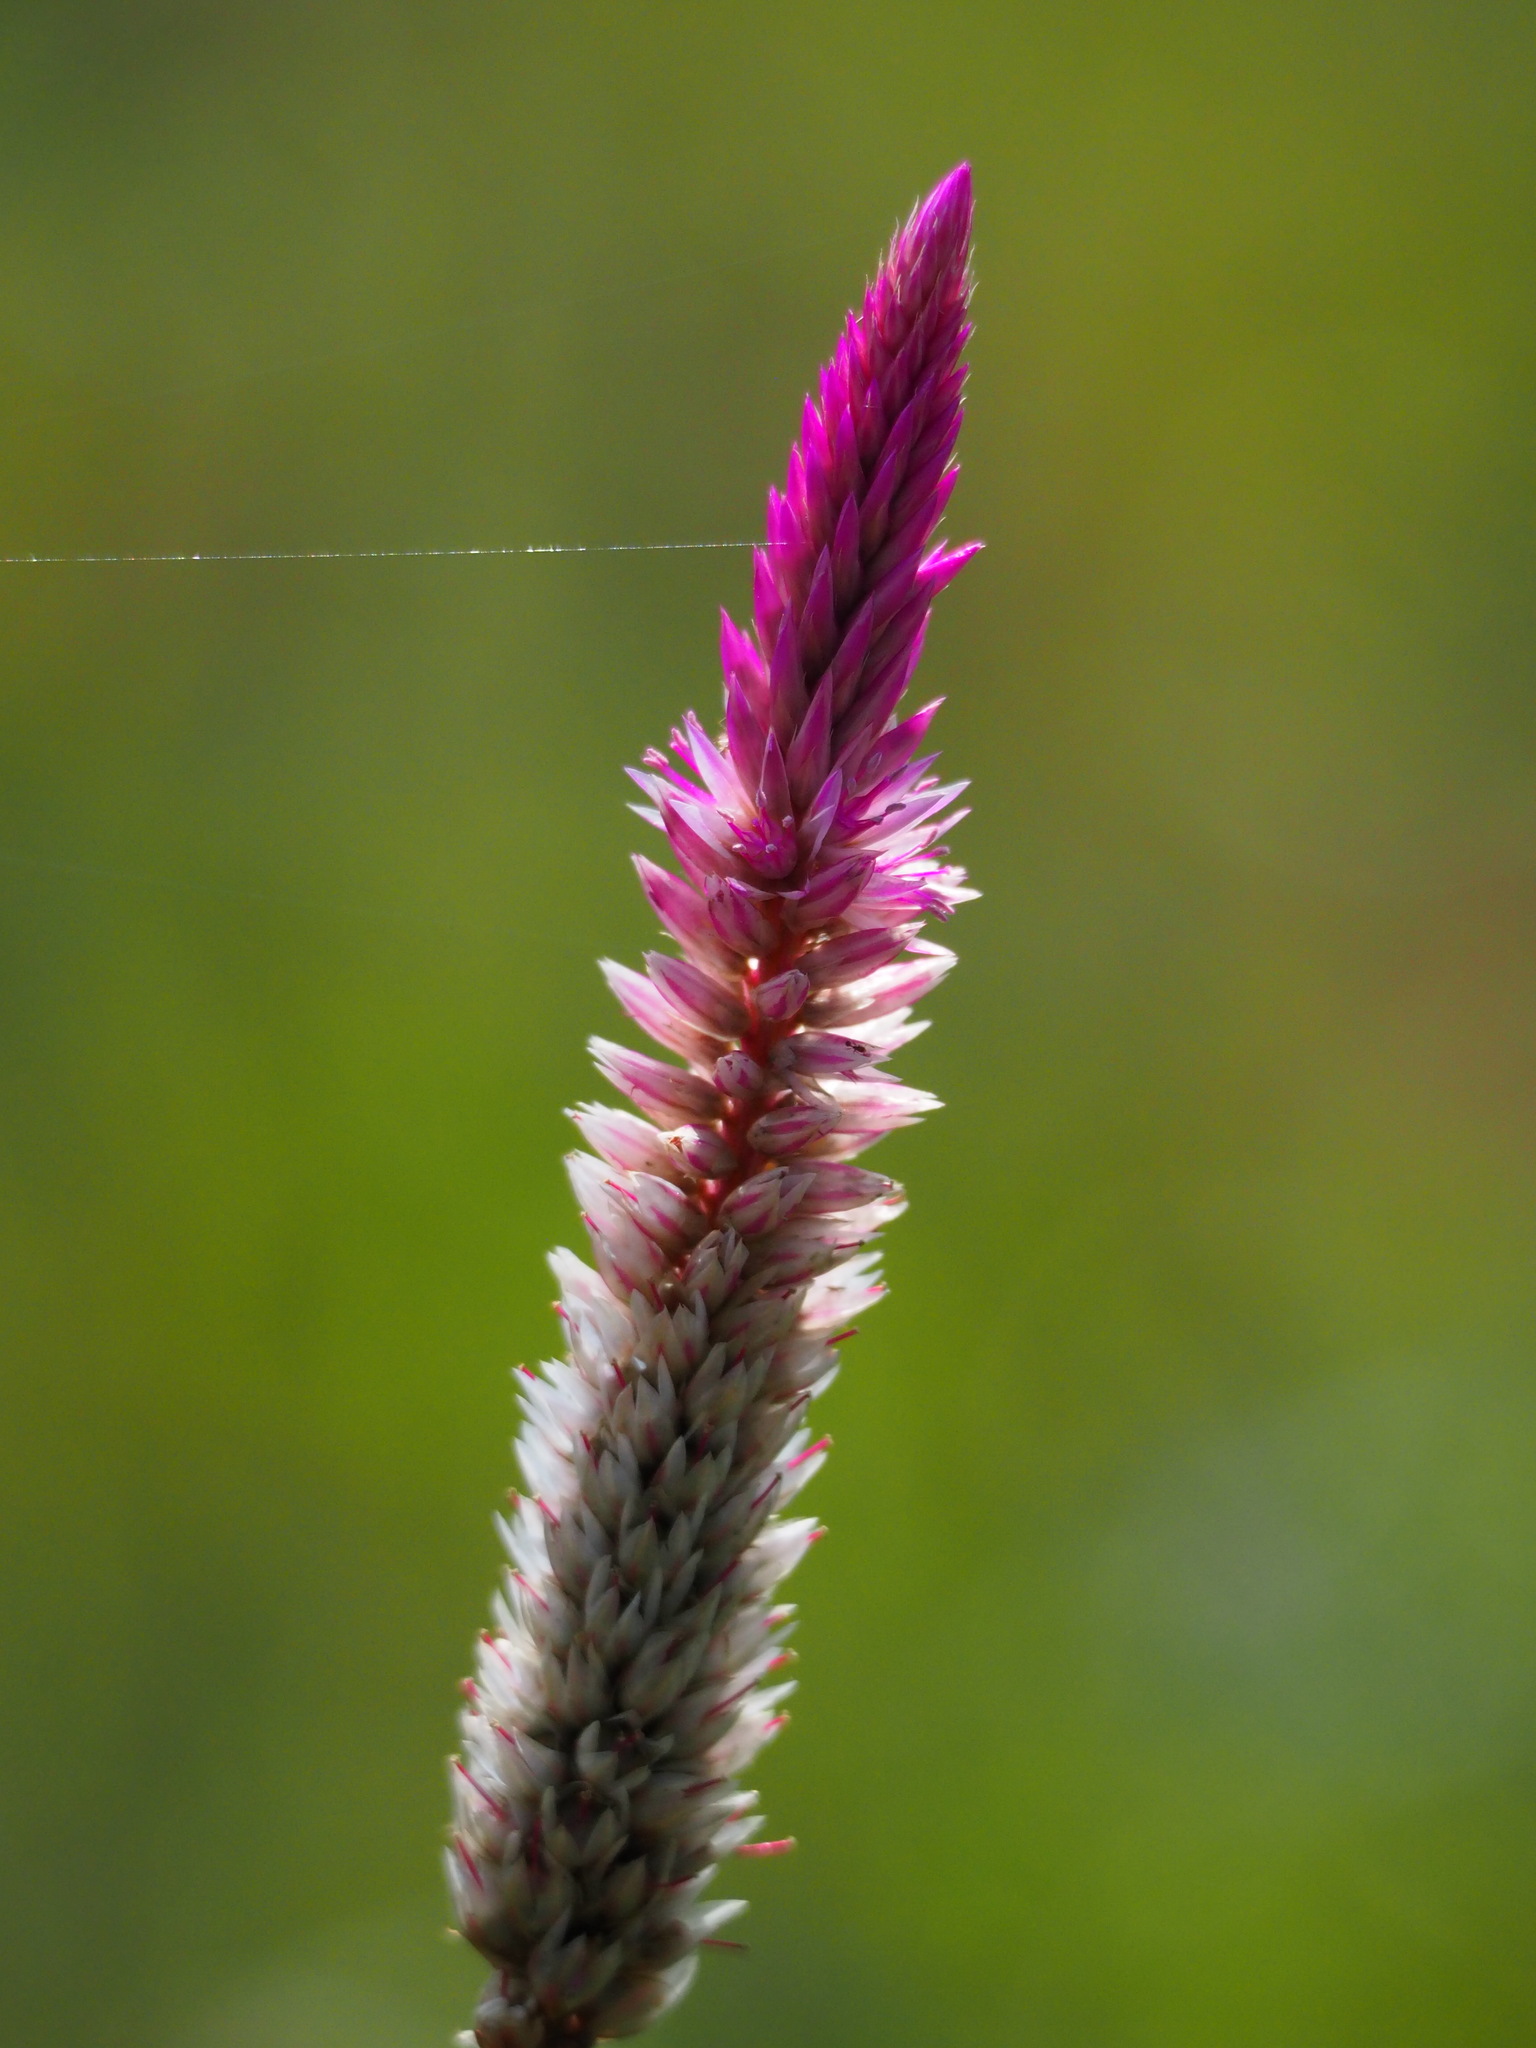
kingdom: Plantae
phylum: Tracheophyta
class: Magnoliopsida
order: Caryophyllales
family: Amaranthaceae
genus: Celosia
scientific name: Celosia argentea
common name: Feather cockscomb
